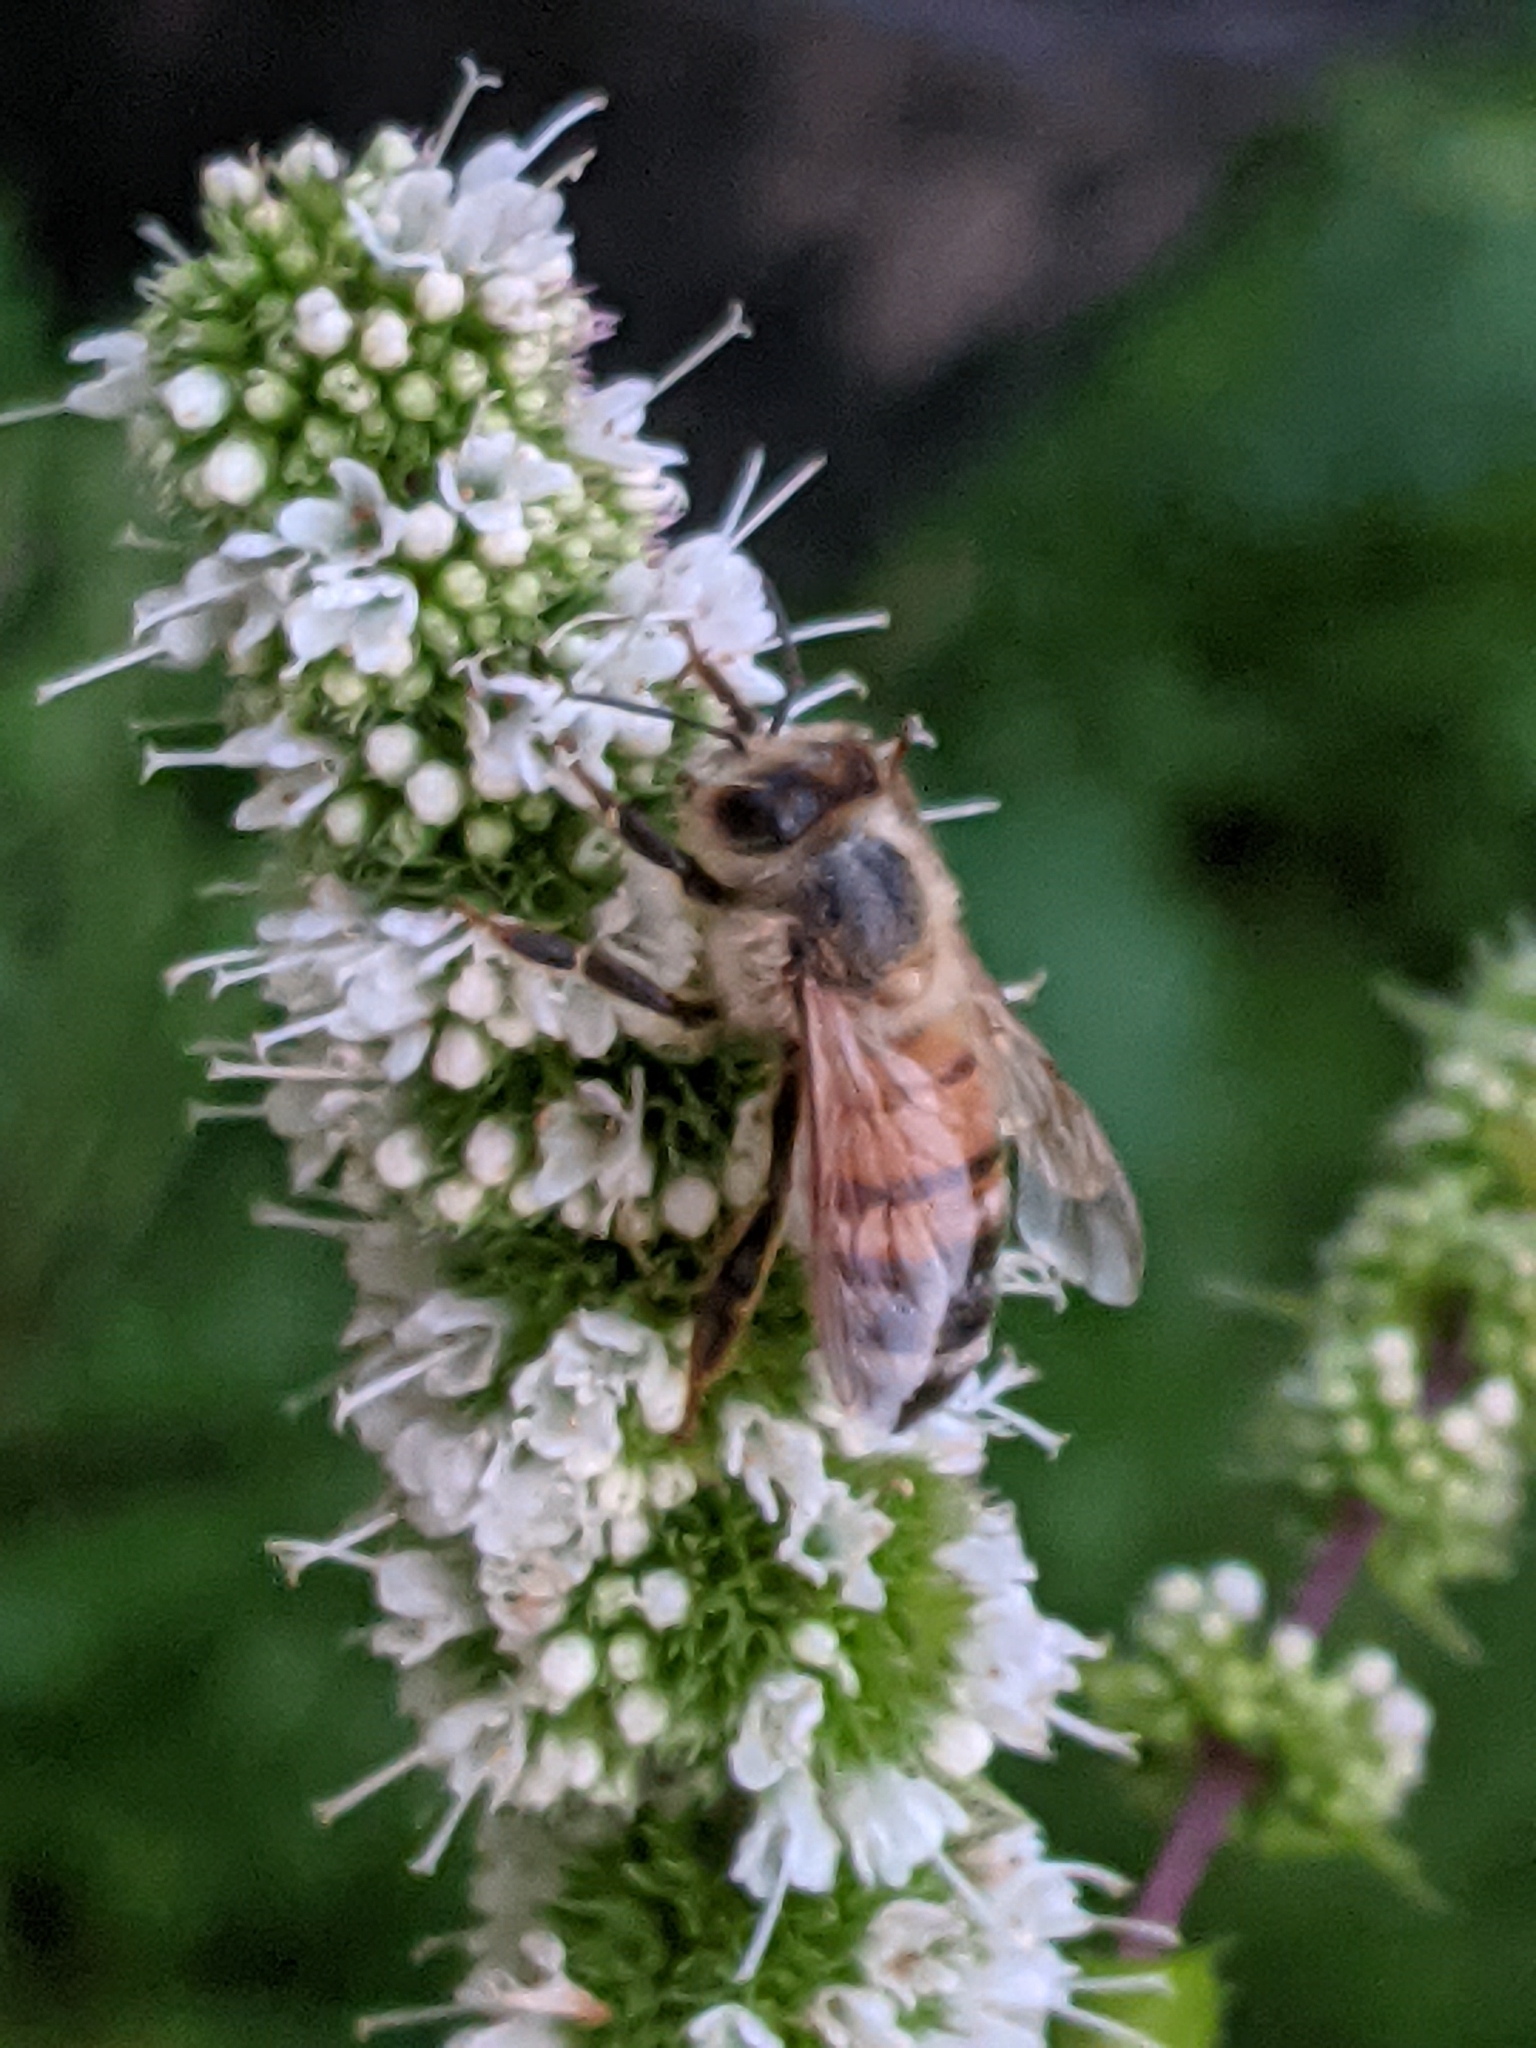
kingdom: Animalia
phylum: Arthropoda
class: Insecta
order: Hymenoptera
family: Apidae
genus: Apis
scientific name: Apis mellifera
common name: Honey bee
